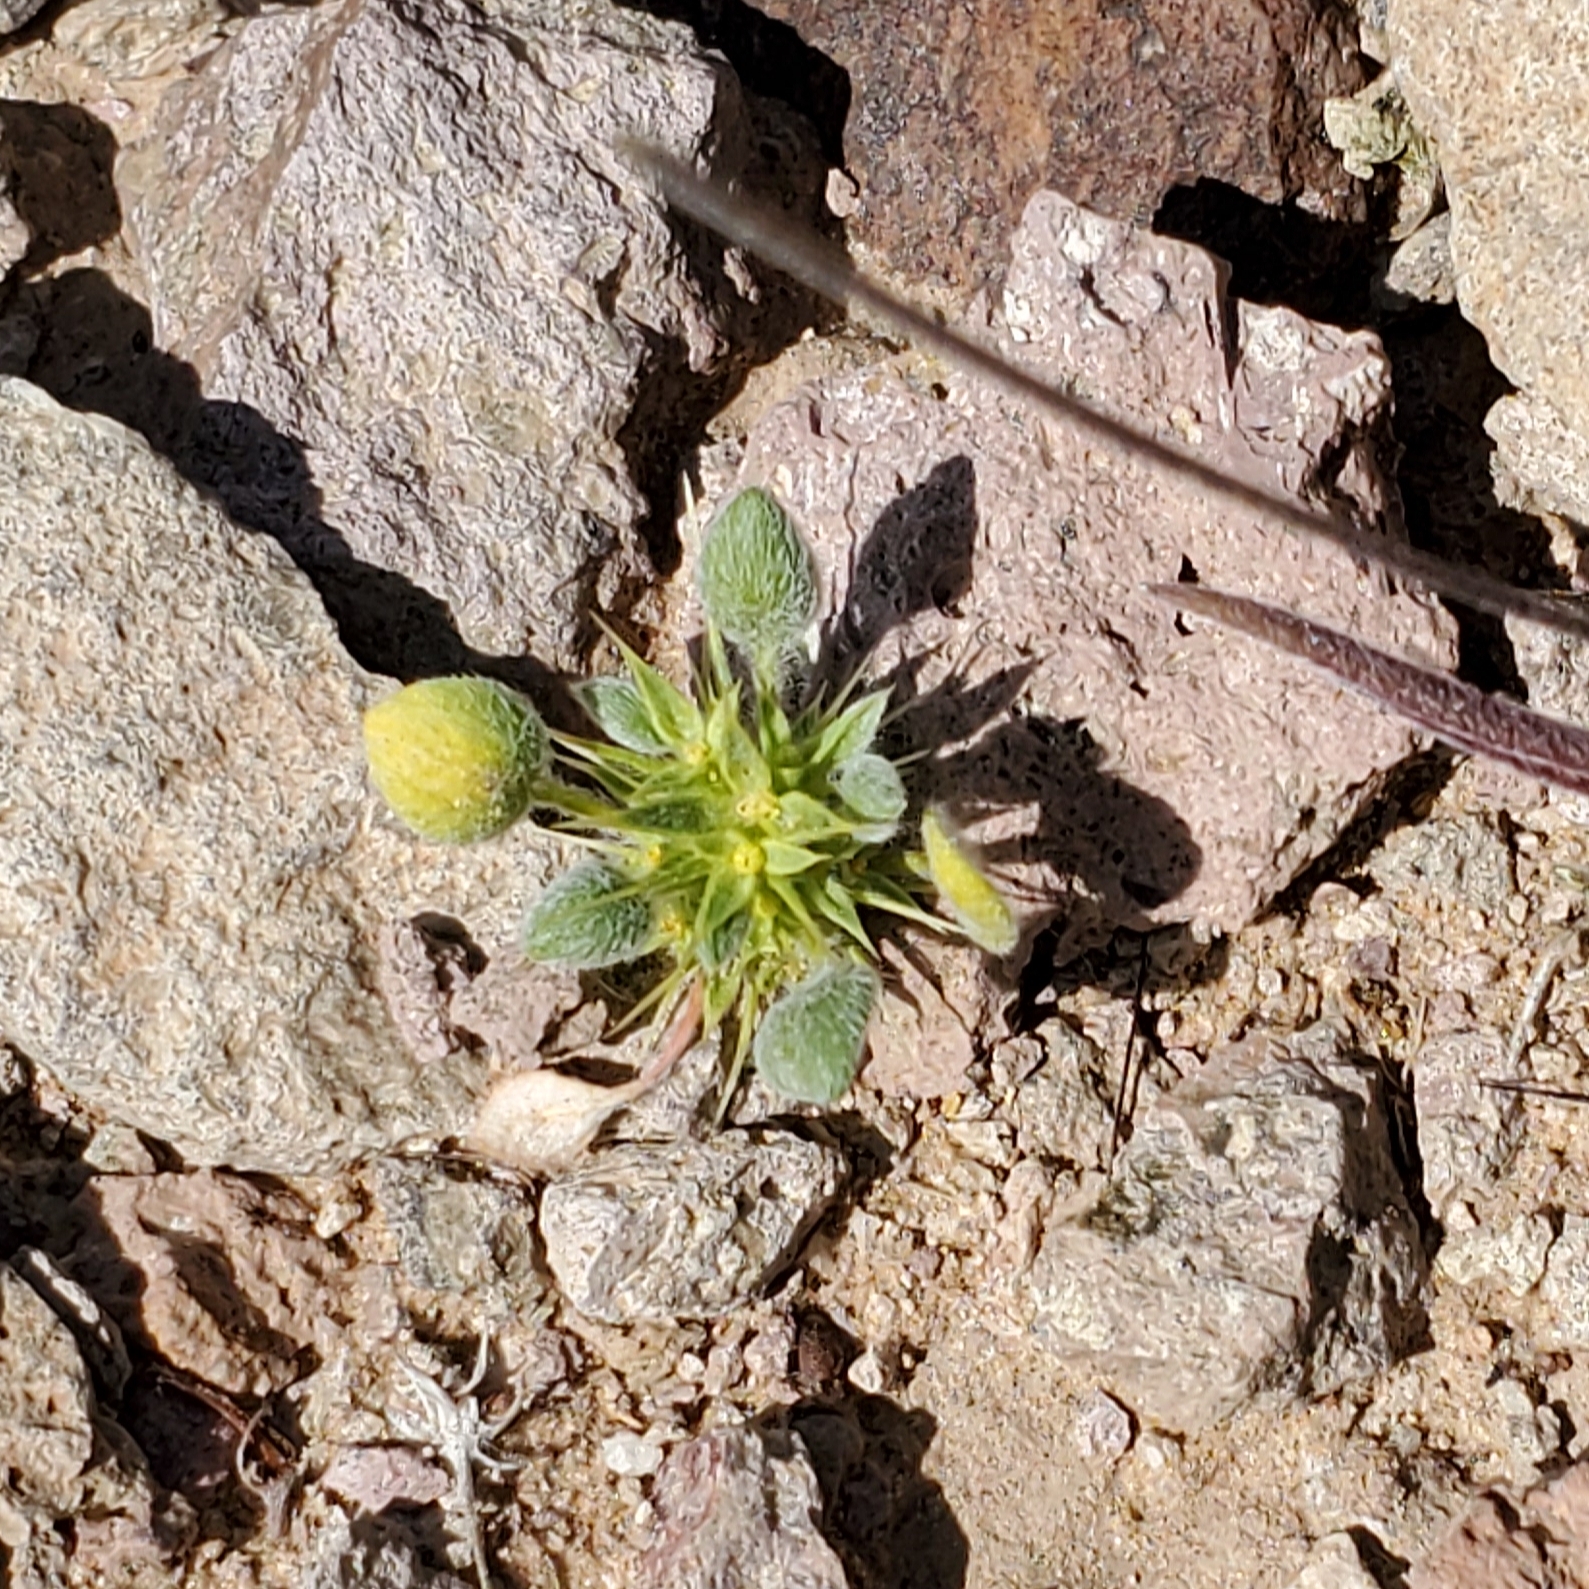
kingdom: Plantae
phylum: Tracheophyta
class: Magnoliopsida
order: Caryophyllales
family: Polygonaceae
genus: Chorizanthe
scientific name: Chorizanthe rigida
